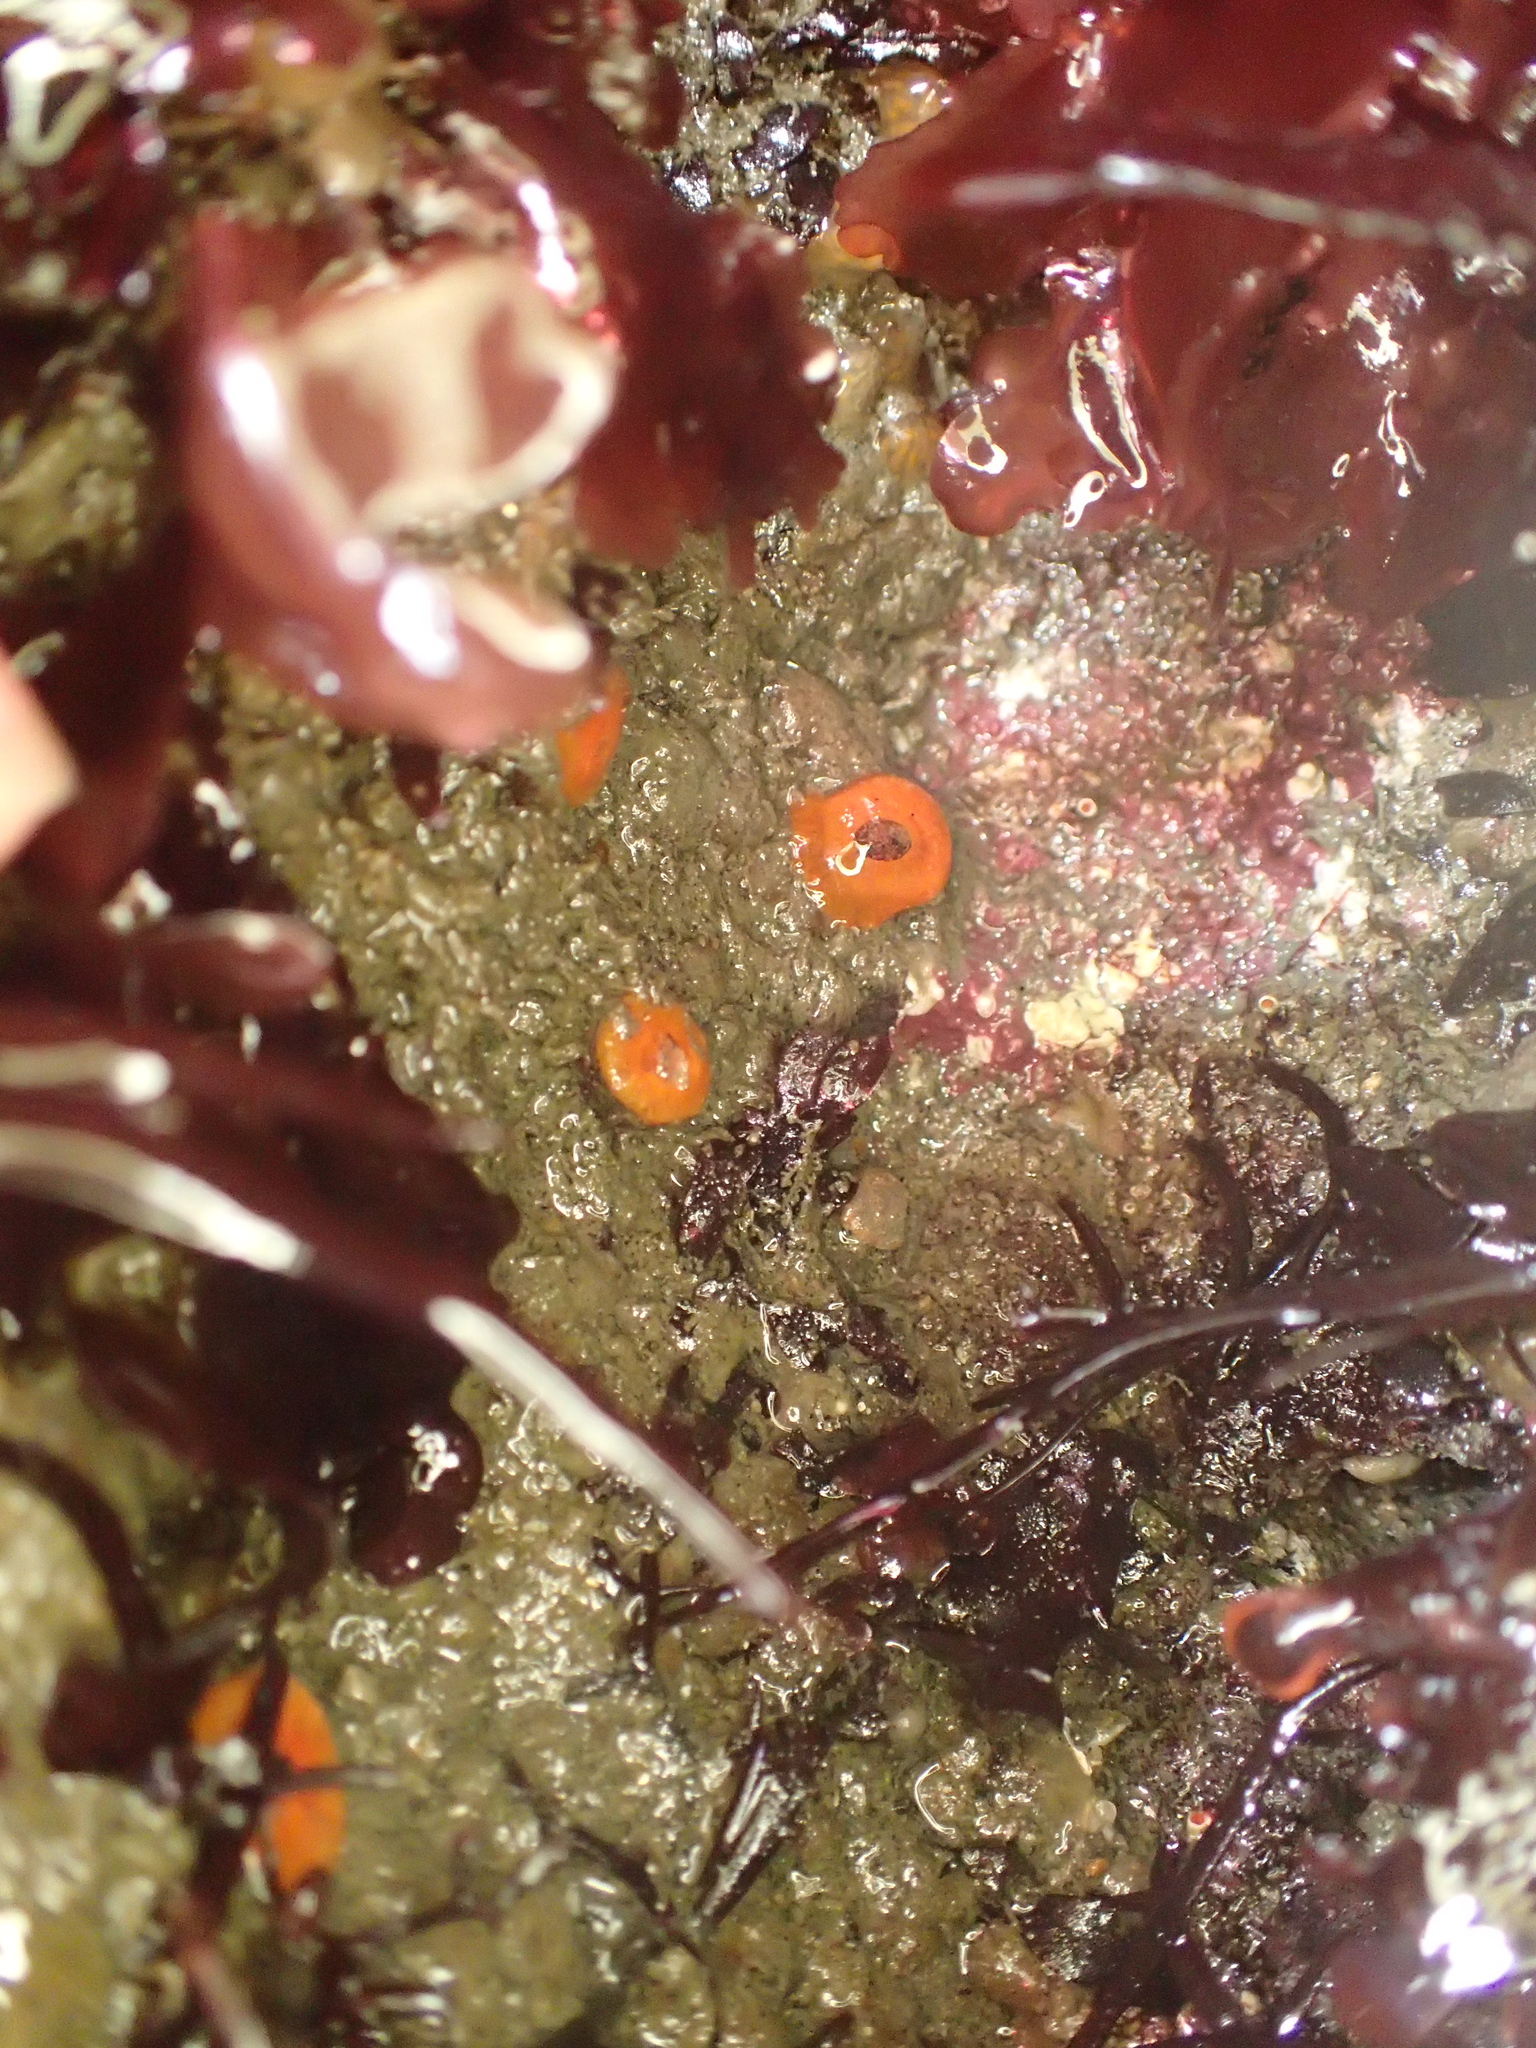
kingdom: Animalia
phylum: Cnidaria
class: Anthozoa
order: Scleractinia
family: Dendrophylliidae
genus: Balanophyllia
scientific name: Balanophyllia elegans
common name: Orange stony coral
